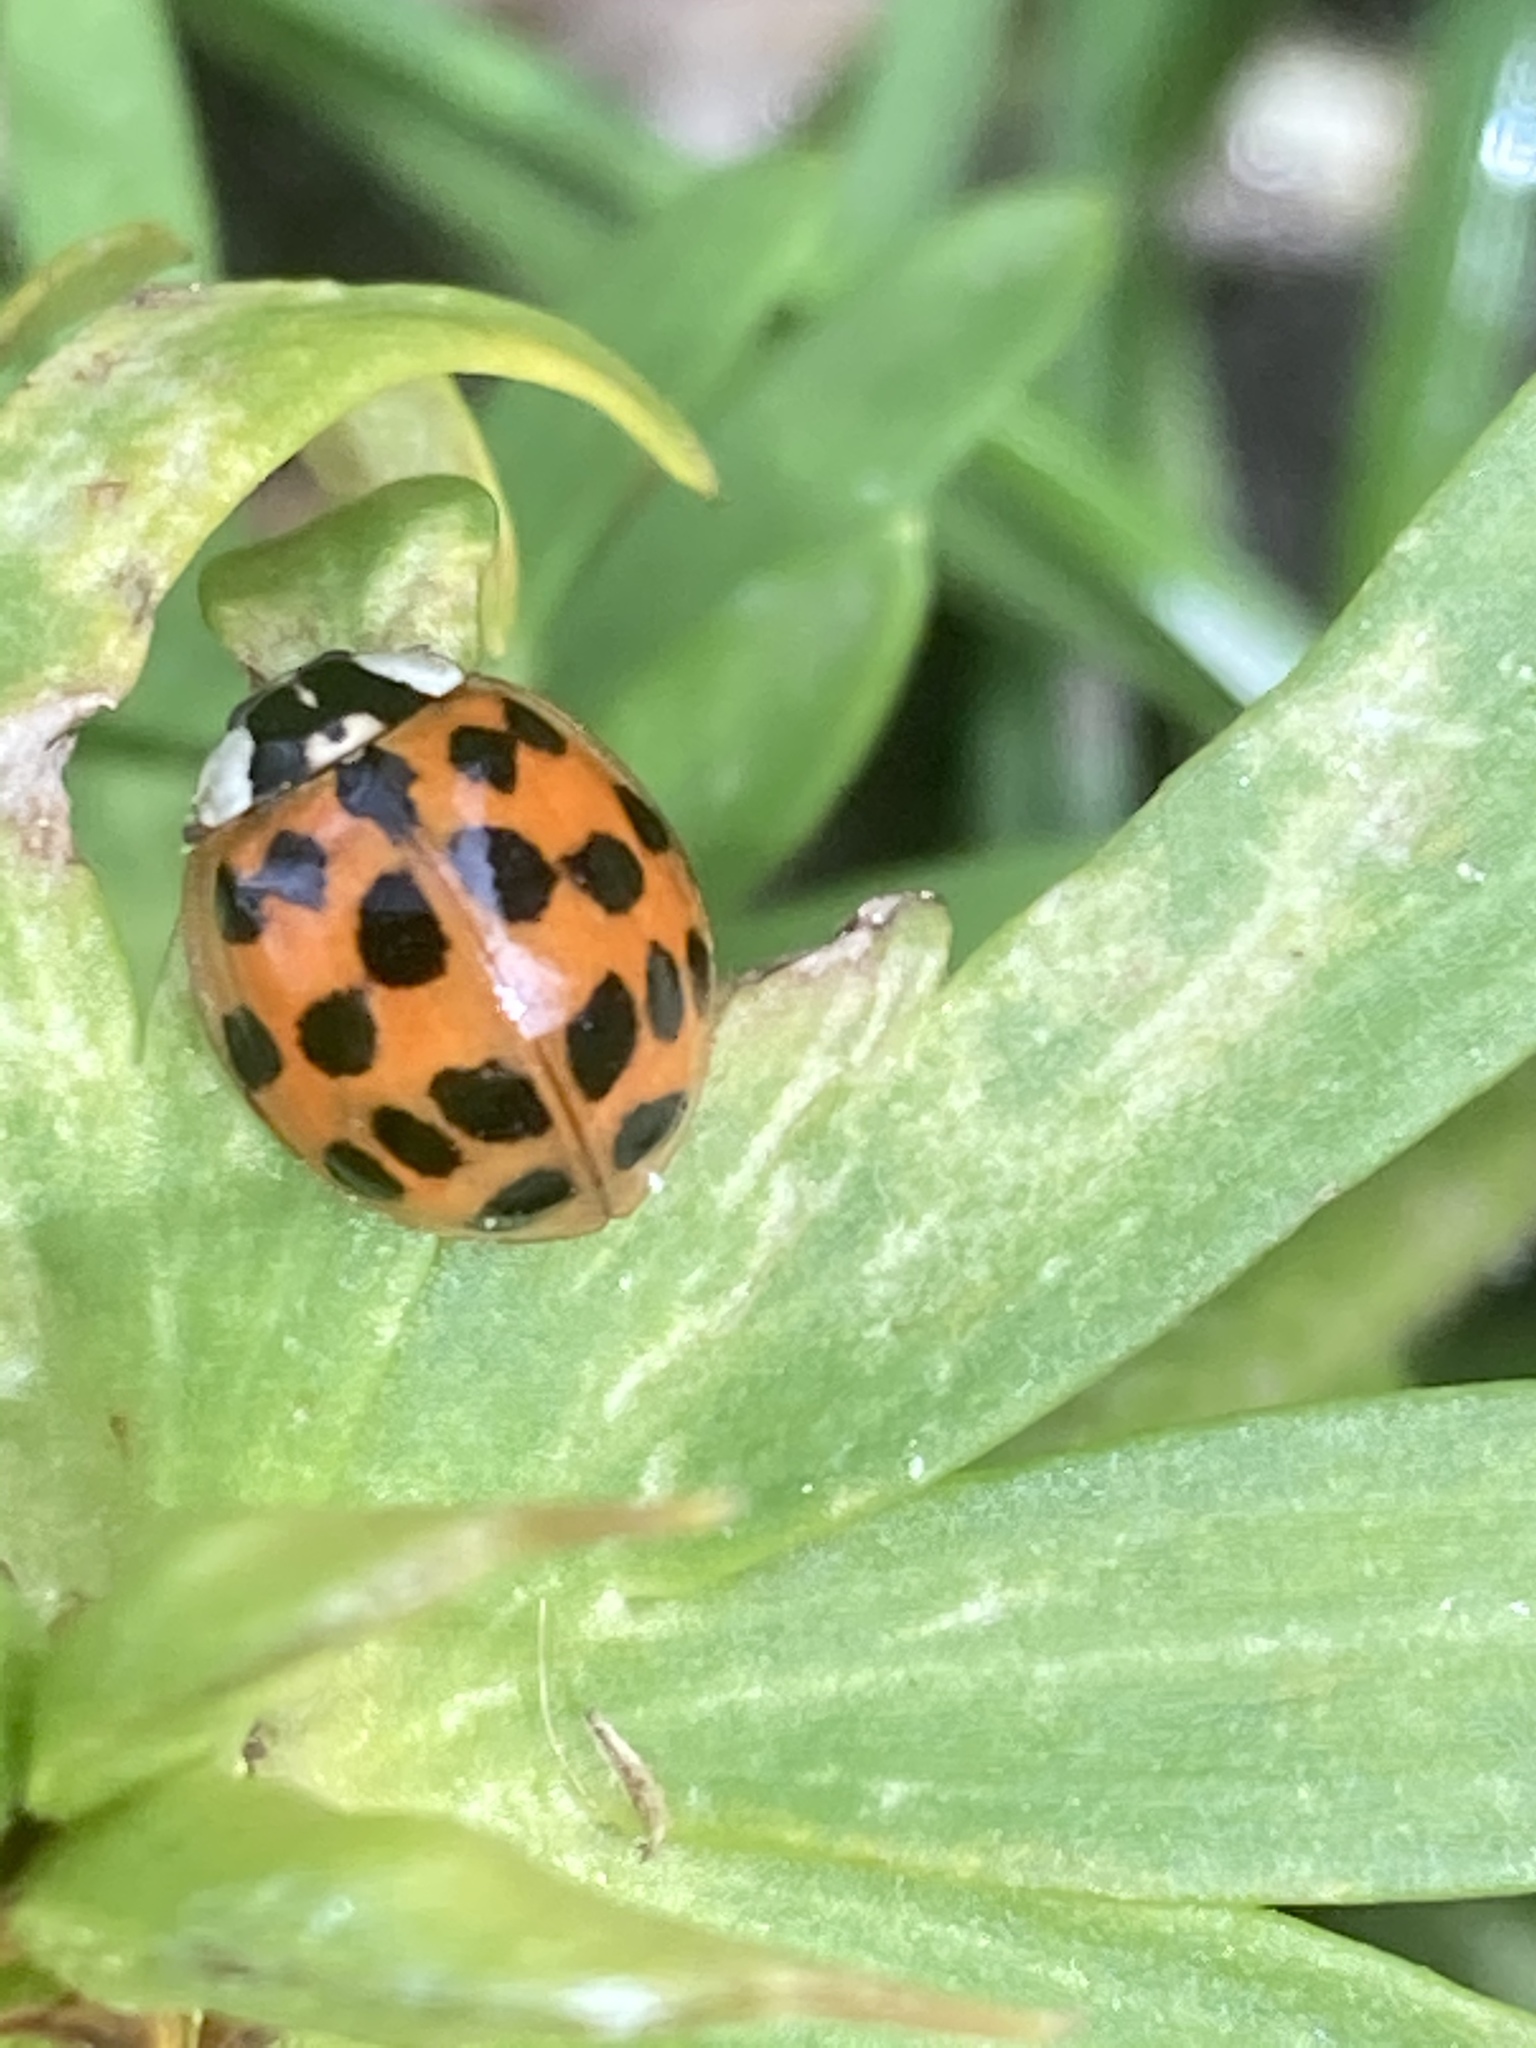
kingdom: Animalia
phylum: Arthropoda
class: Insecta
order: Coleoptera
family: Coccinellidae
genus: Harmonia
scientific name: Harmonia axyridis
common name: Harlequin ladybird
